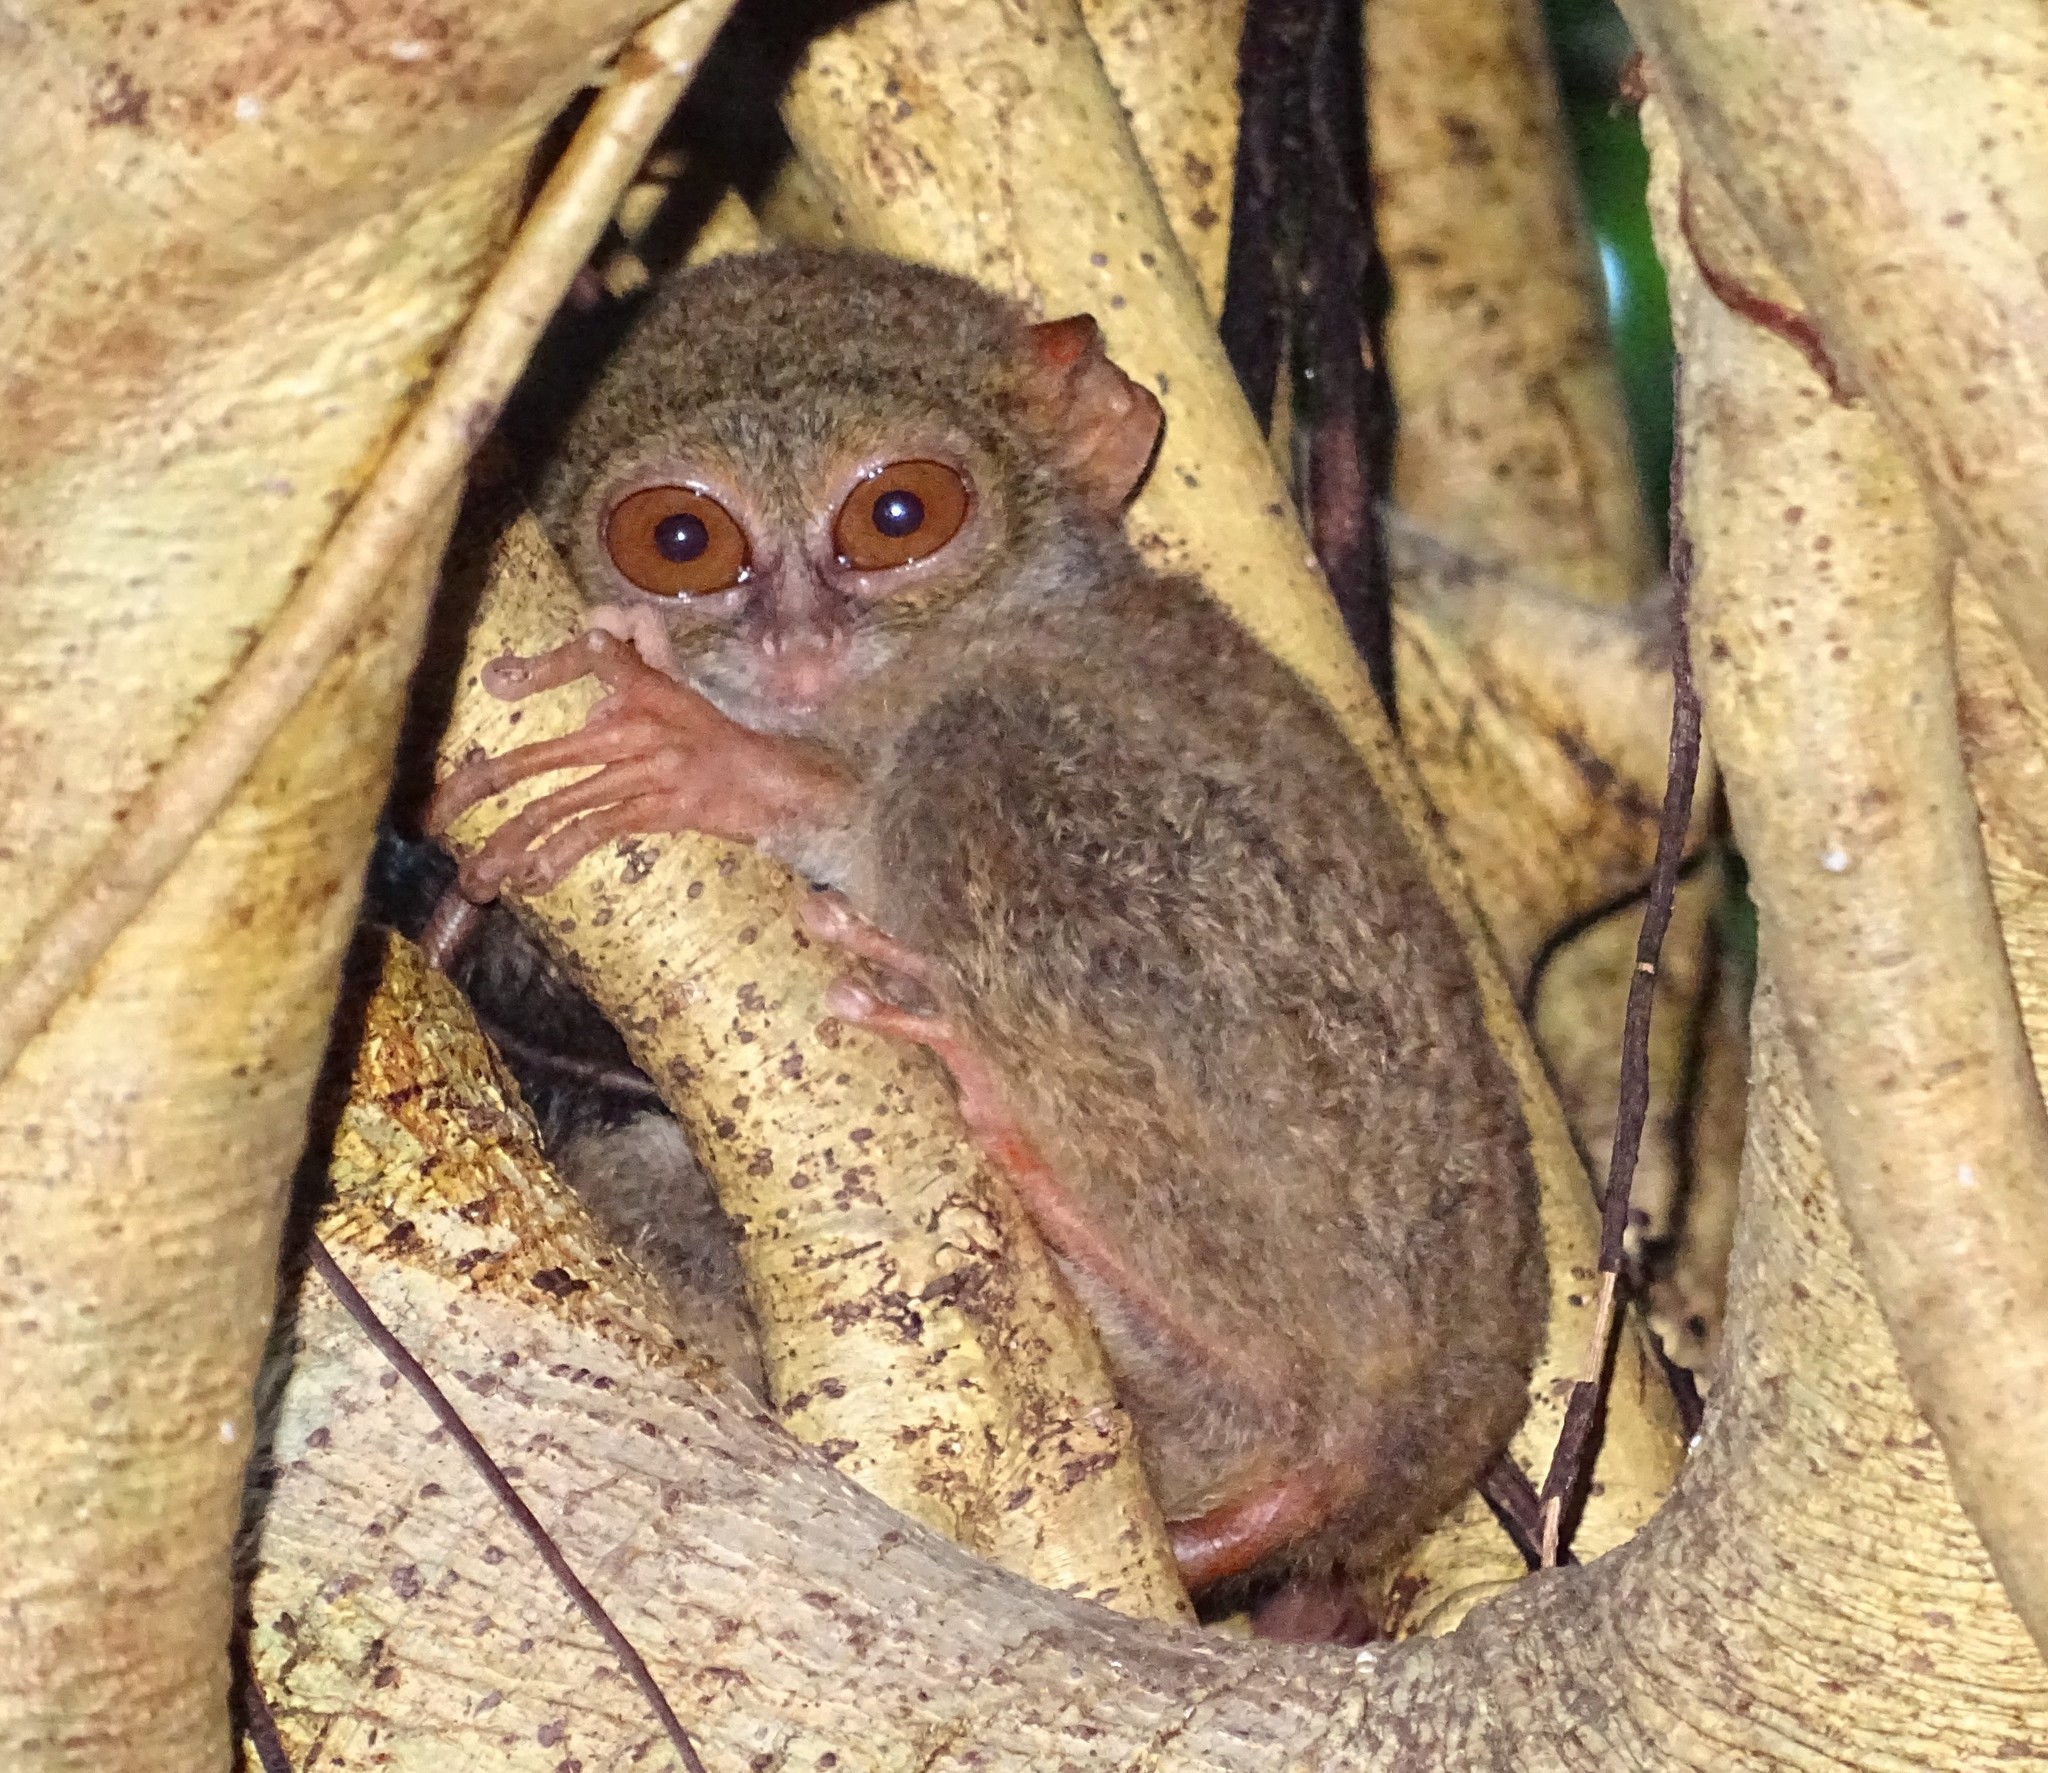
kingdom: Animalia
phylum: Chordata
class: Mammalia
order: Primates
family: Tarsiidae
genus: Tarsius
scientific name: Tarsius spectrumgurskyae
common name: Gursky's spectral tarsier
